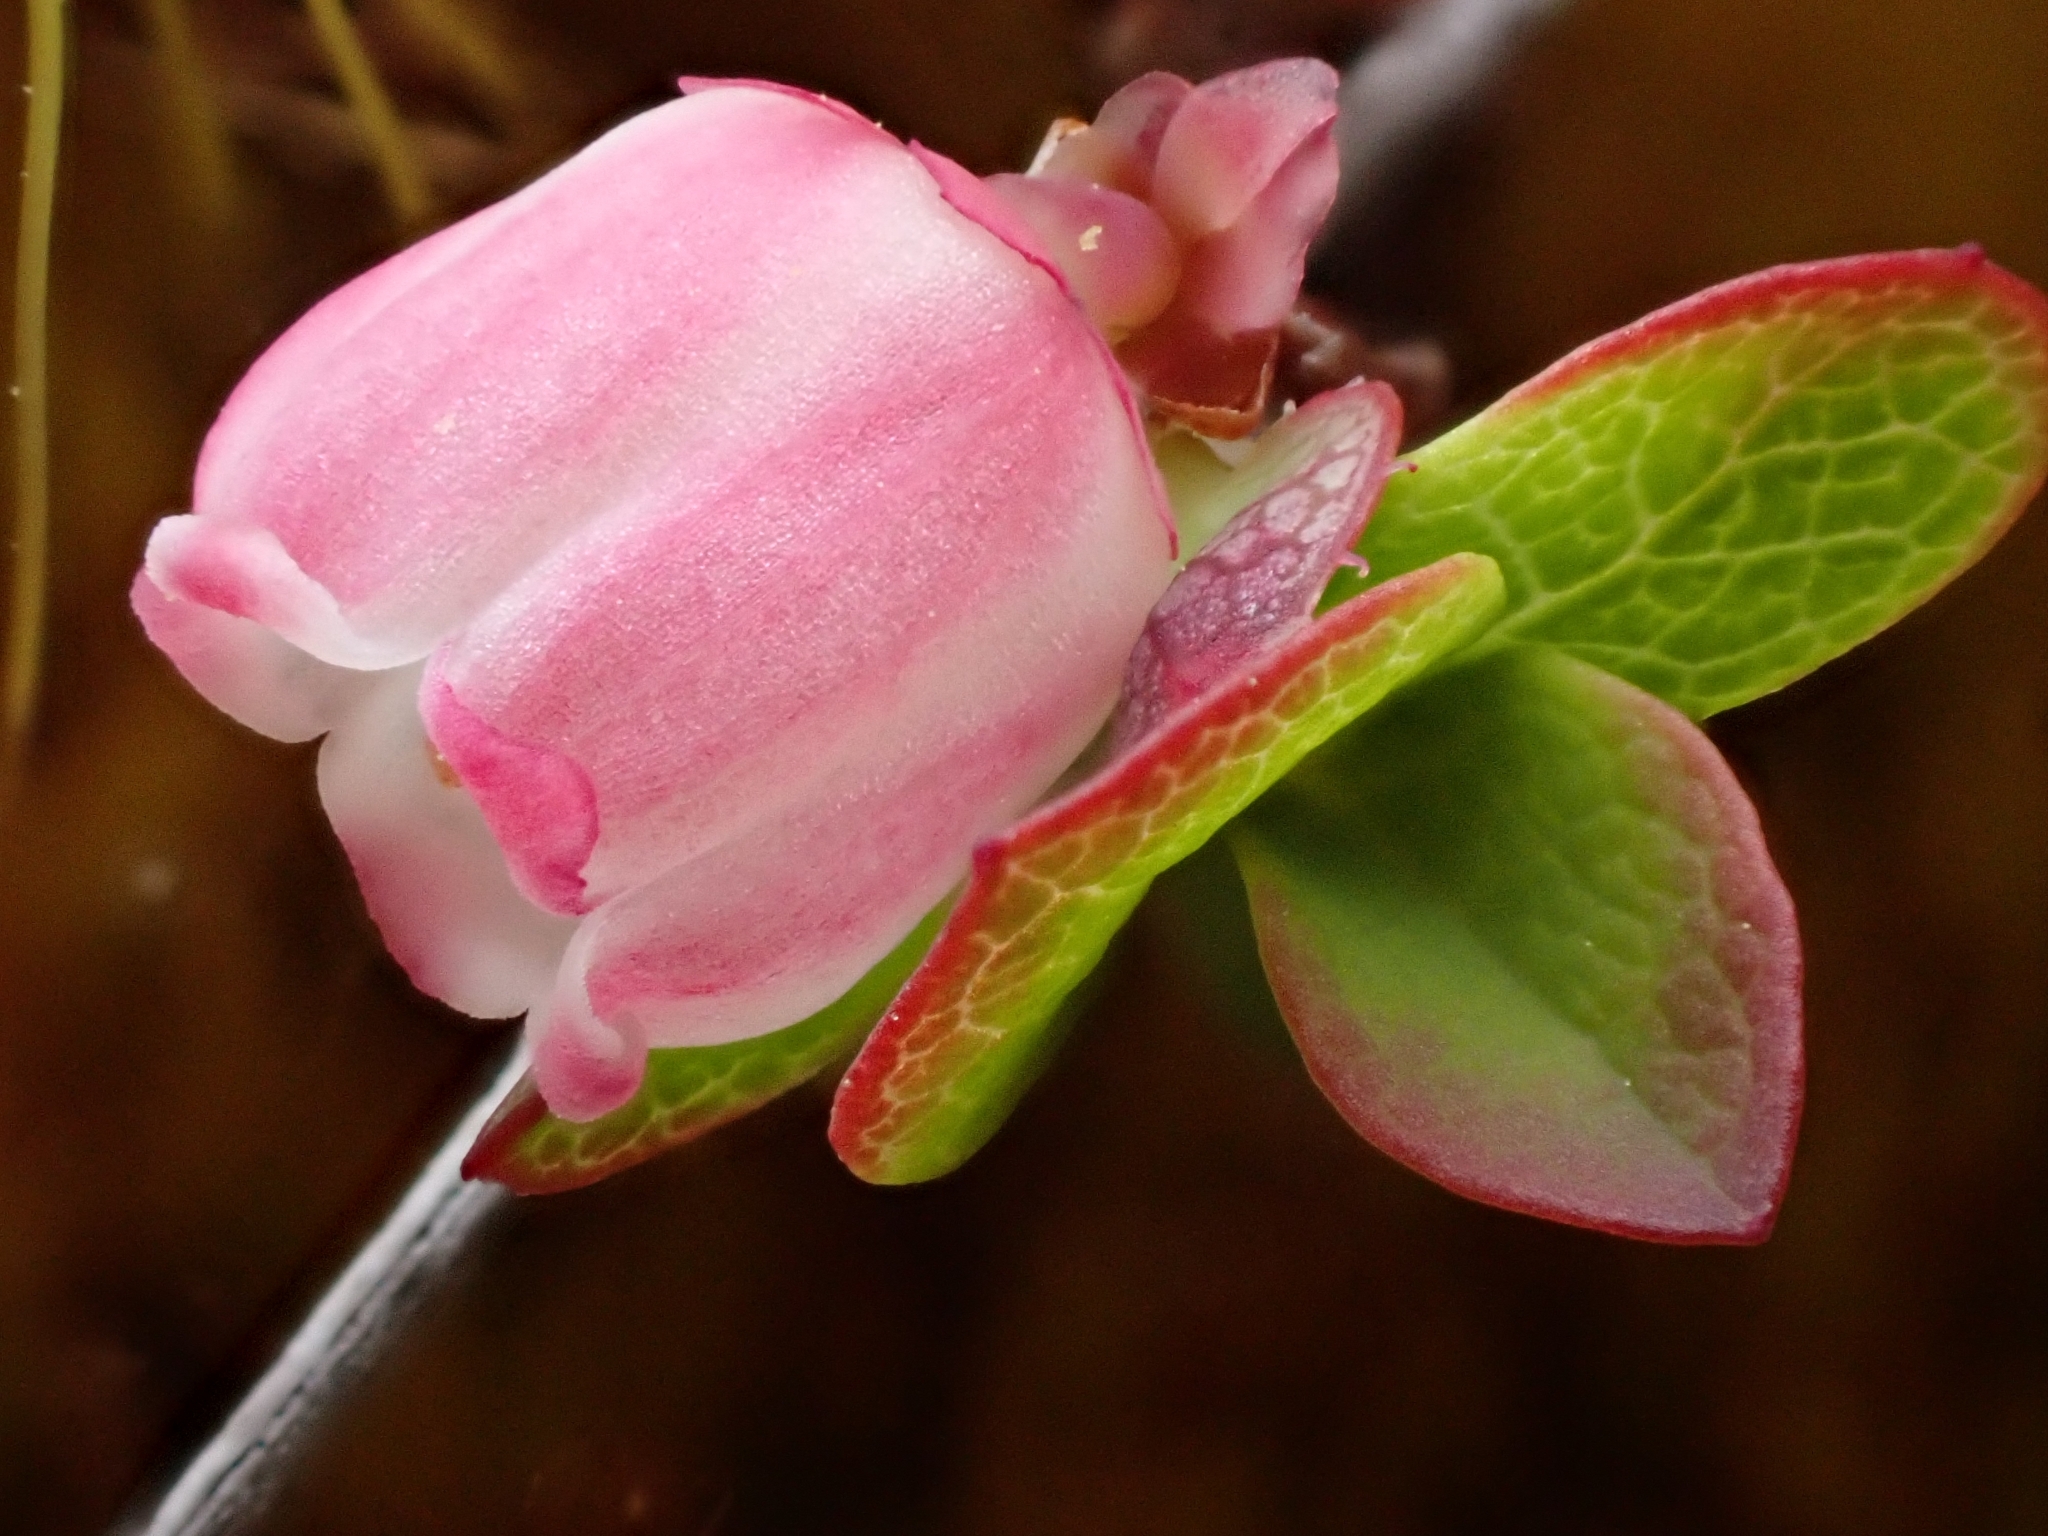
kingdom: Plantae
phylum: Tracheophyta
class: Magnoliopsida
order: Ericales
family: Ericaceae
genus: Vaccinium
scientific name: Vaccinium uliginosum
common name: Bog bilberry
